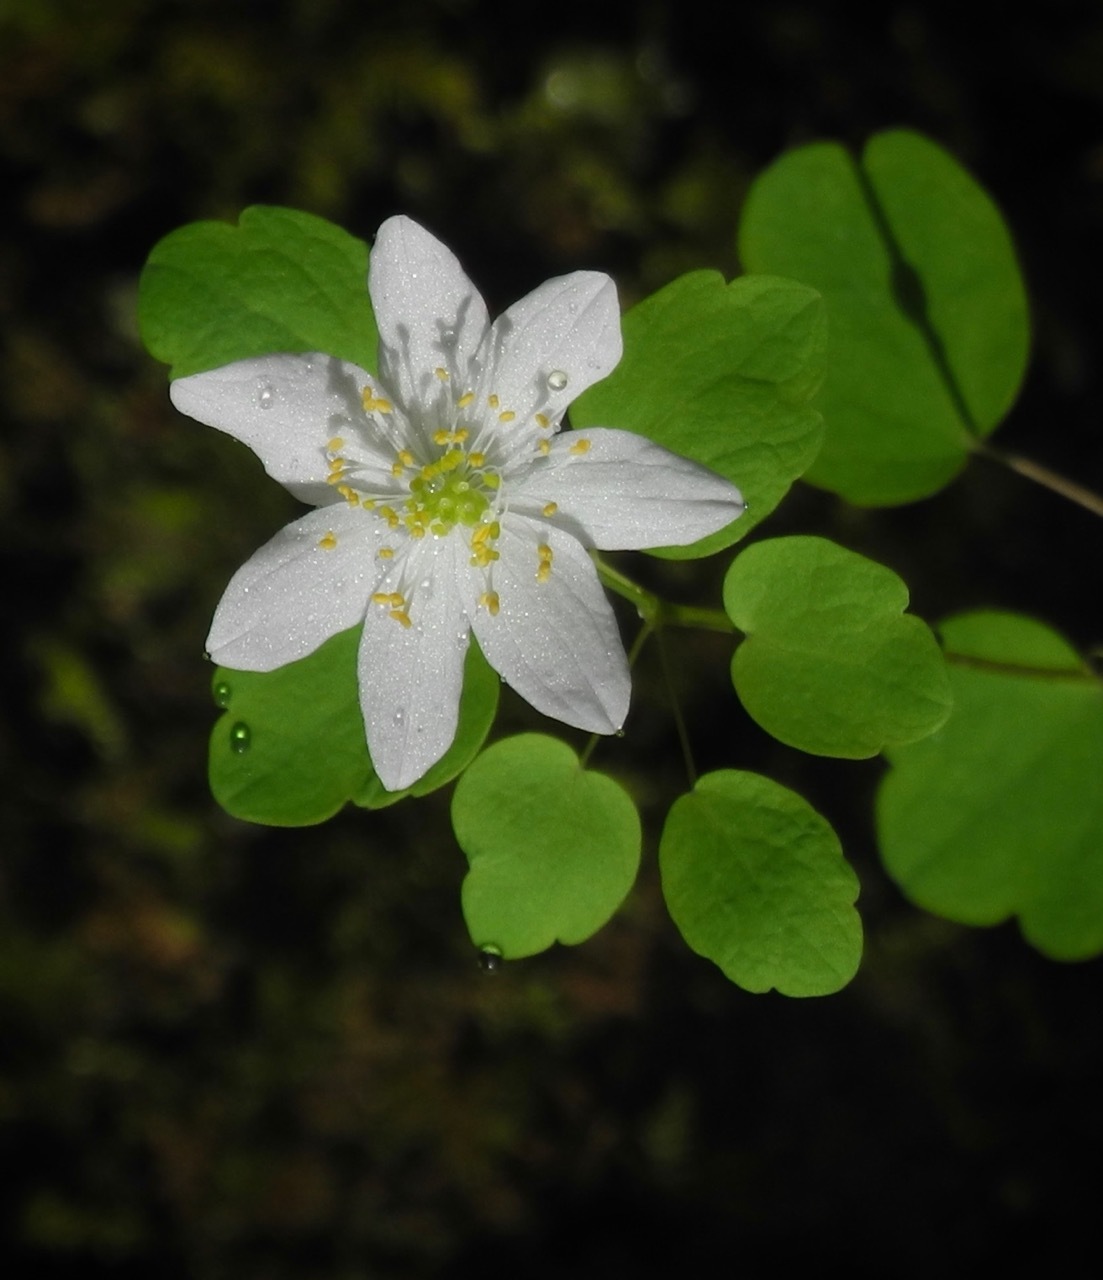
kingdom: Plantae
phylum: Tracheophyta
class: Magnoliopsida
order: Ranunculales
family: Ranunculaceae
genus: Thalictrum
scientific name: Thalictrum thalictroides
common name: Rue-anemone
